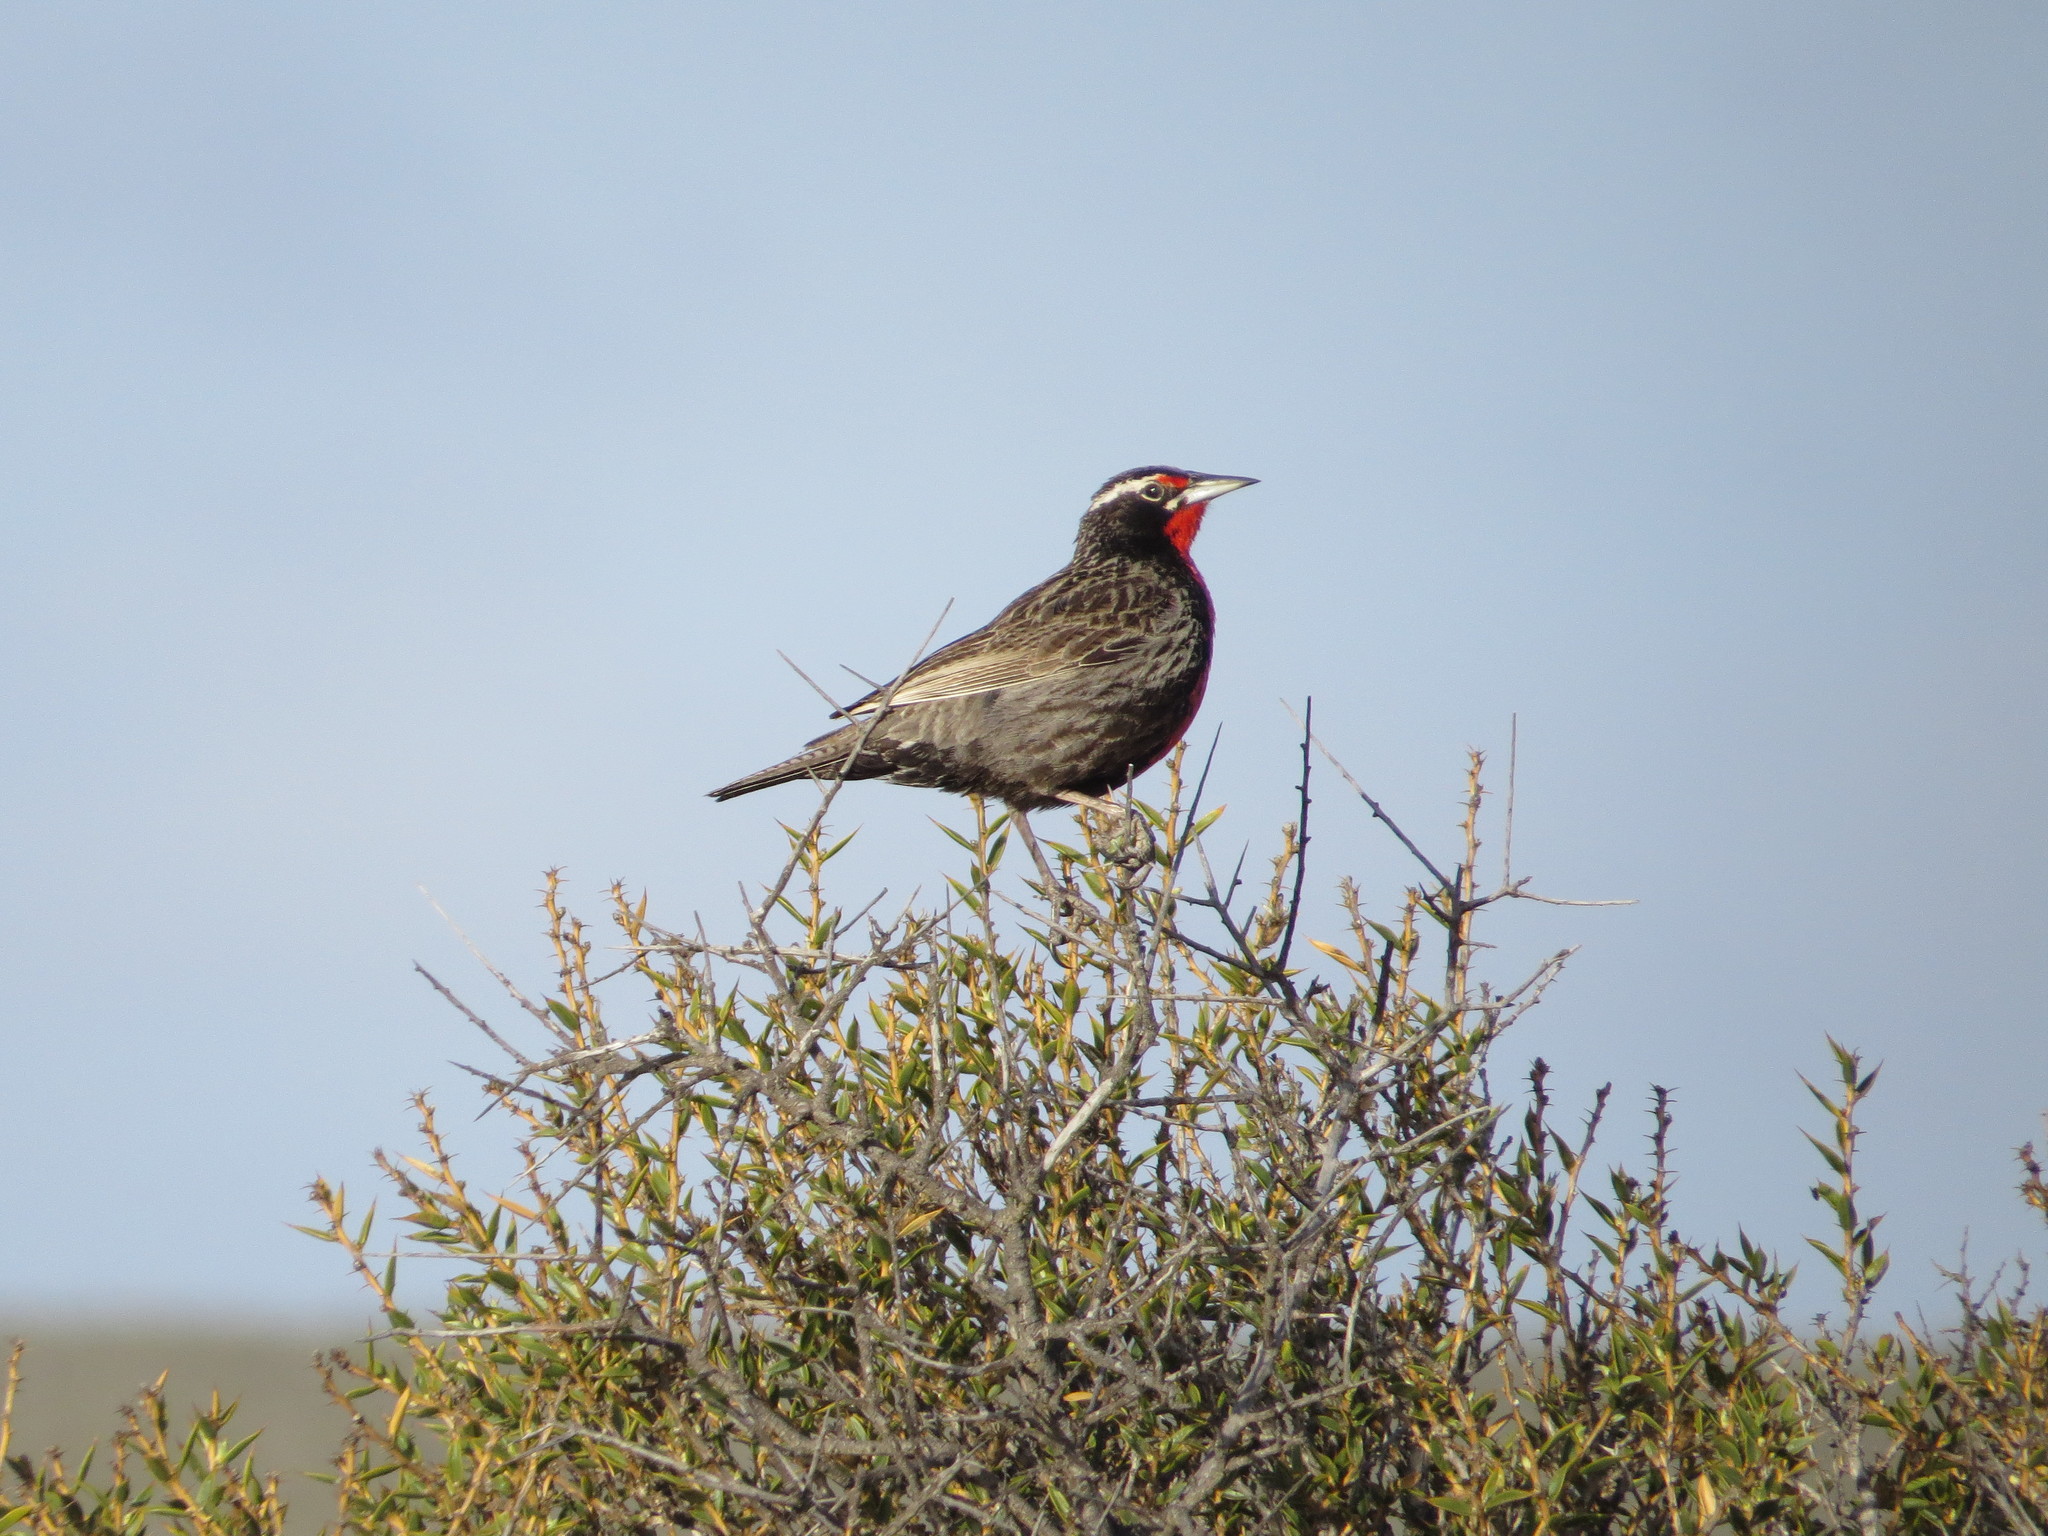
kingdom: Animalia
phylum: Chordata
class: Aves
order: Passeriformes
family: Icteridae
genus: Sturnella
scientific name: Sturnella loyca
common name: Long-tailed meadowlark
